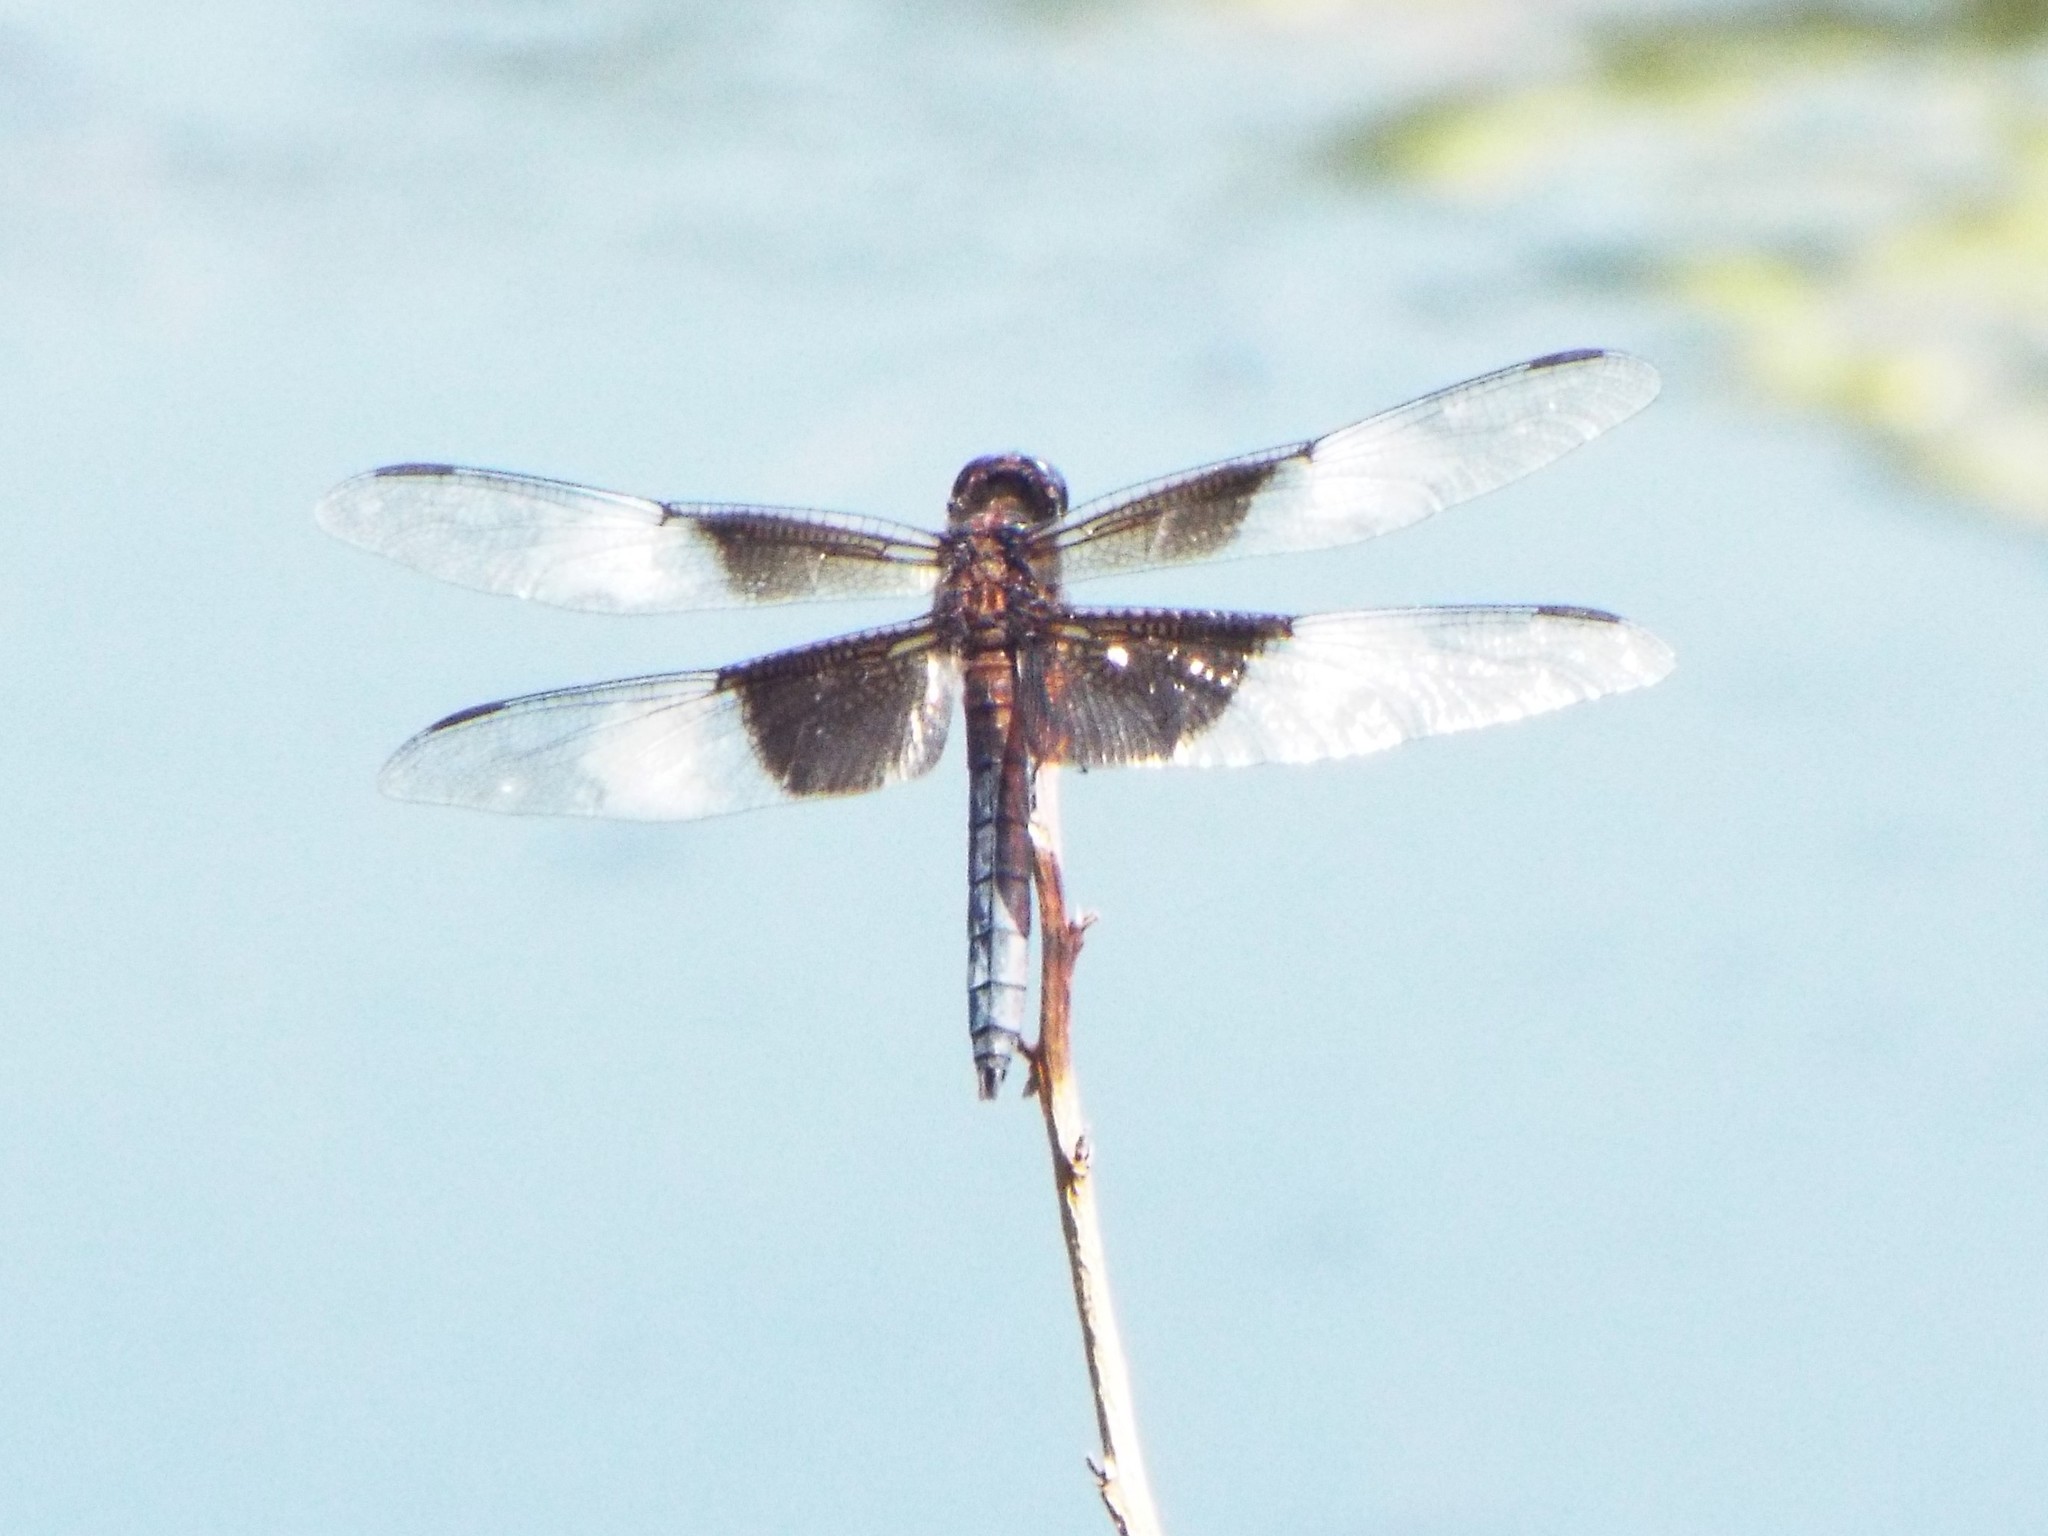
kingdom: Animalia
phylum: Arthropoda
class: Insecta
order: Odonata
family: Libellulidae
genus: Libellula
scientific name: Libellula luctuosa
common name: Widow skimmer
